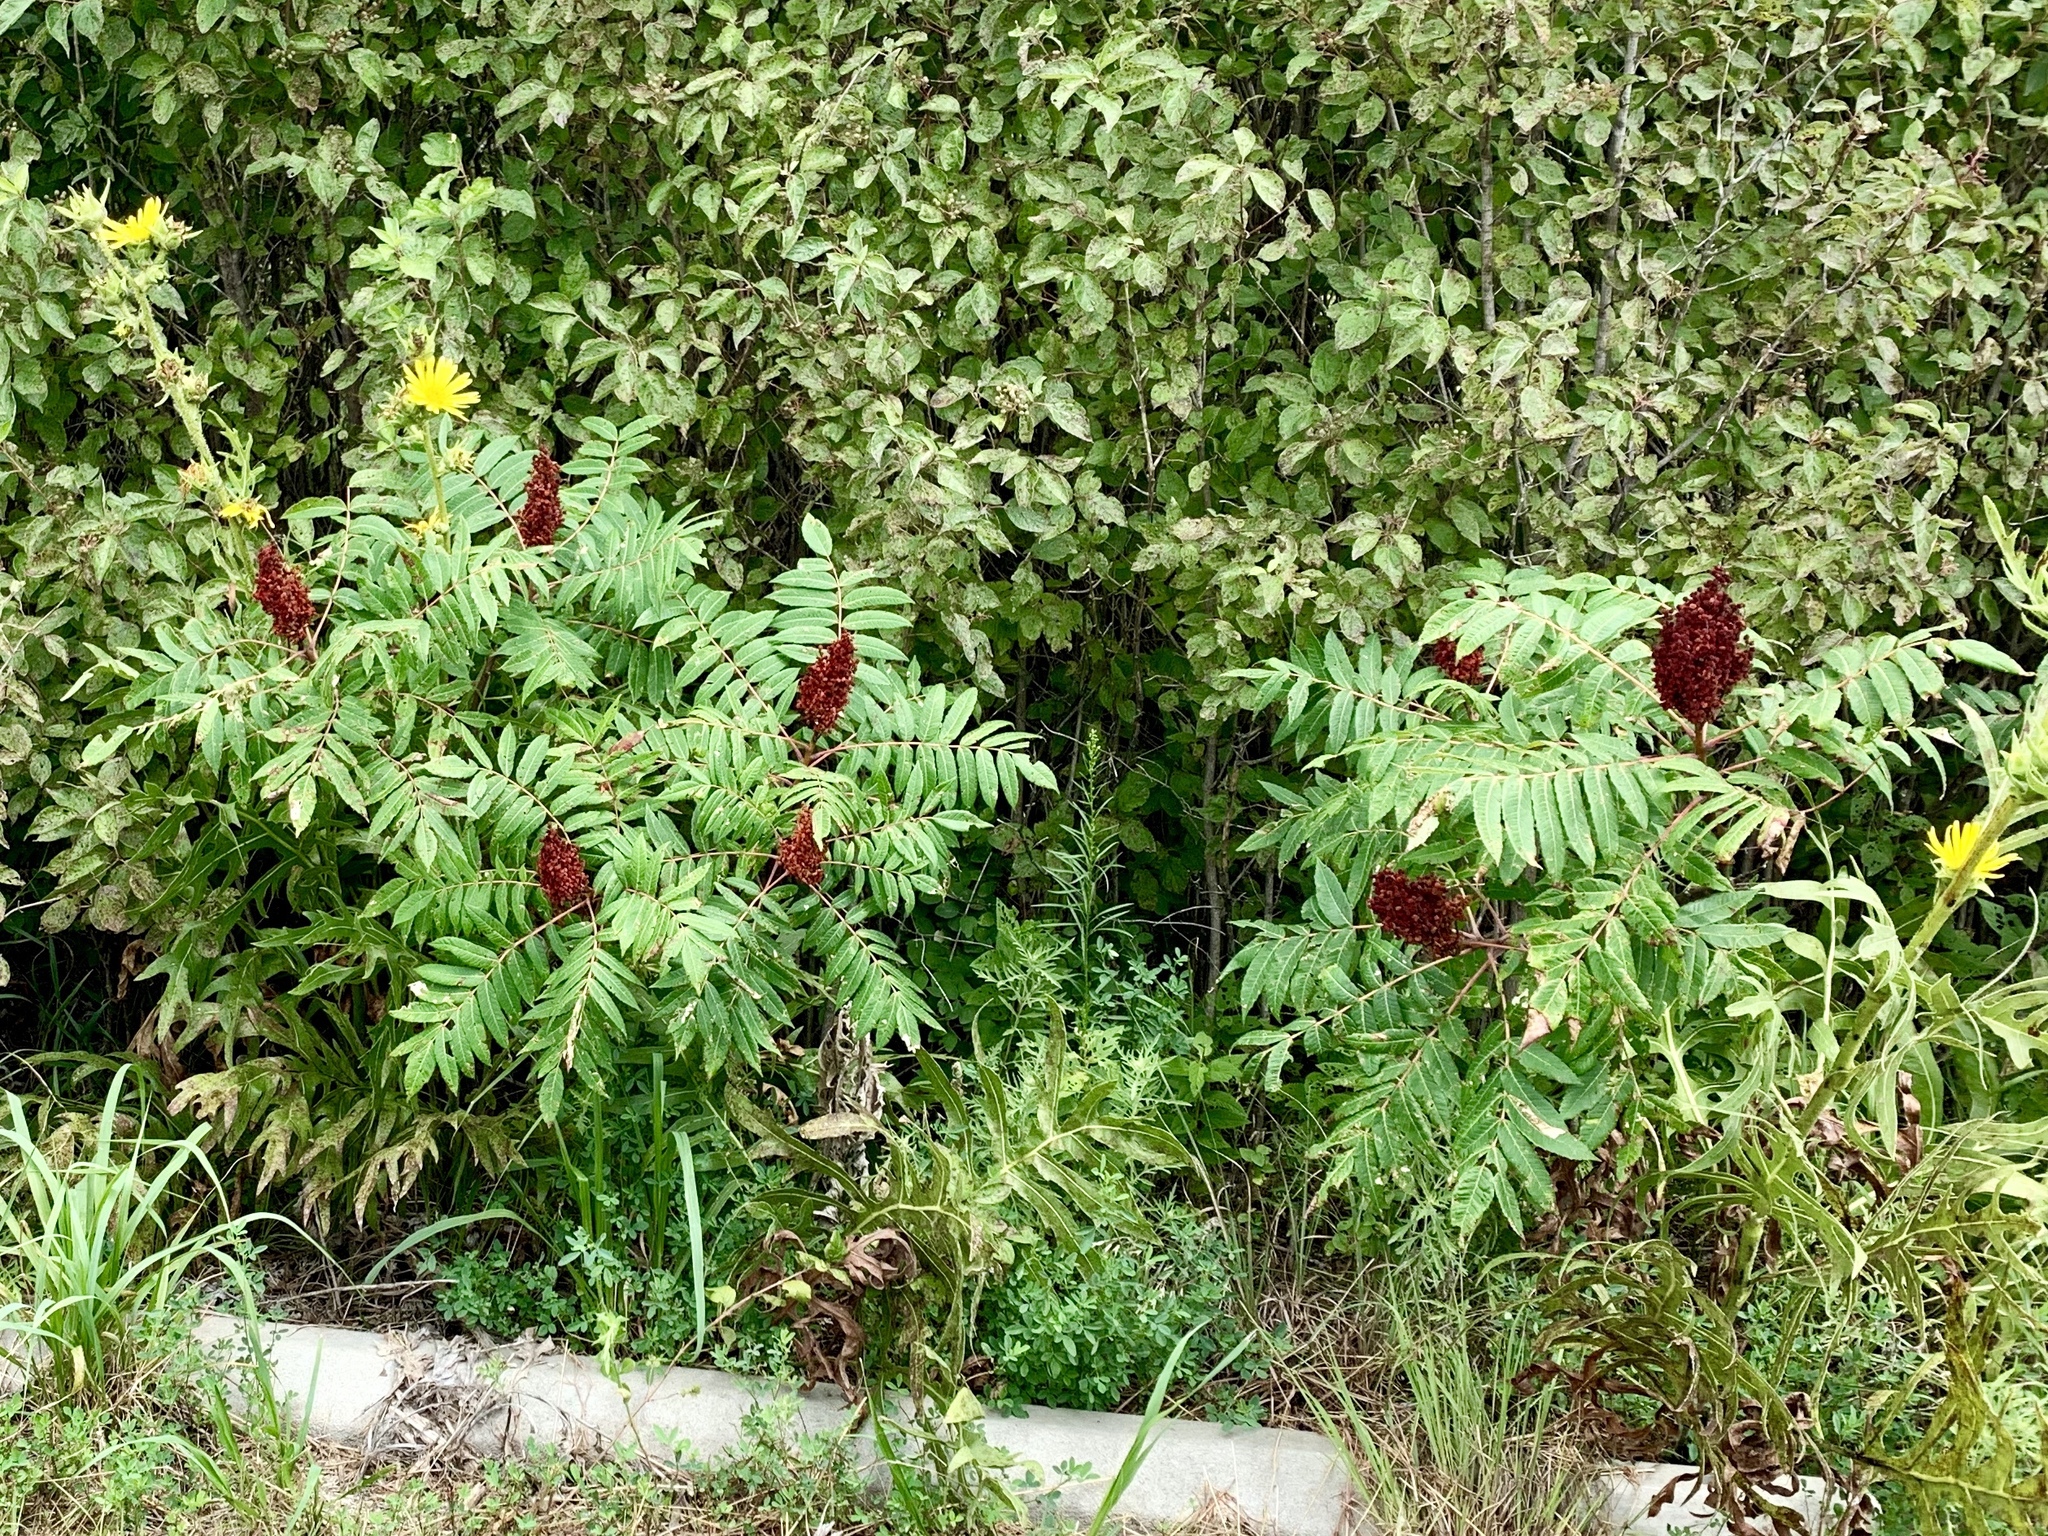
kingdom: Plantae
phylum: Tracheophyta
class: Magnoliopsida
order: Sapindales
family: Anacardiaceae
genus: Rhus
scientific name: Rhus glabra
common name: Scarlet sumac
